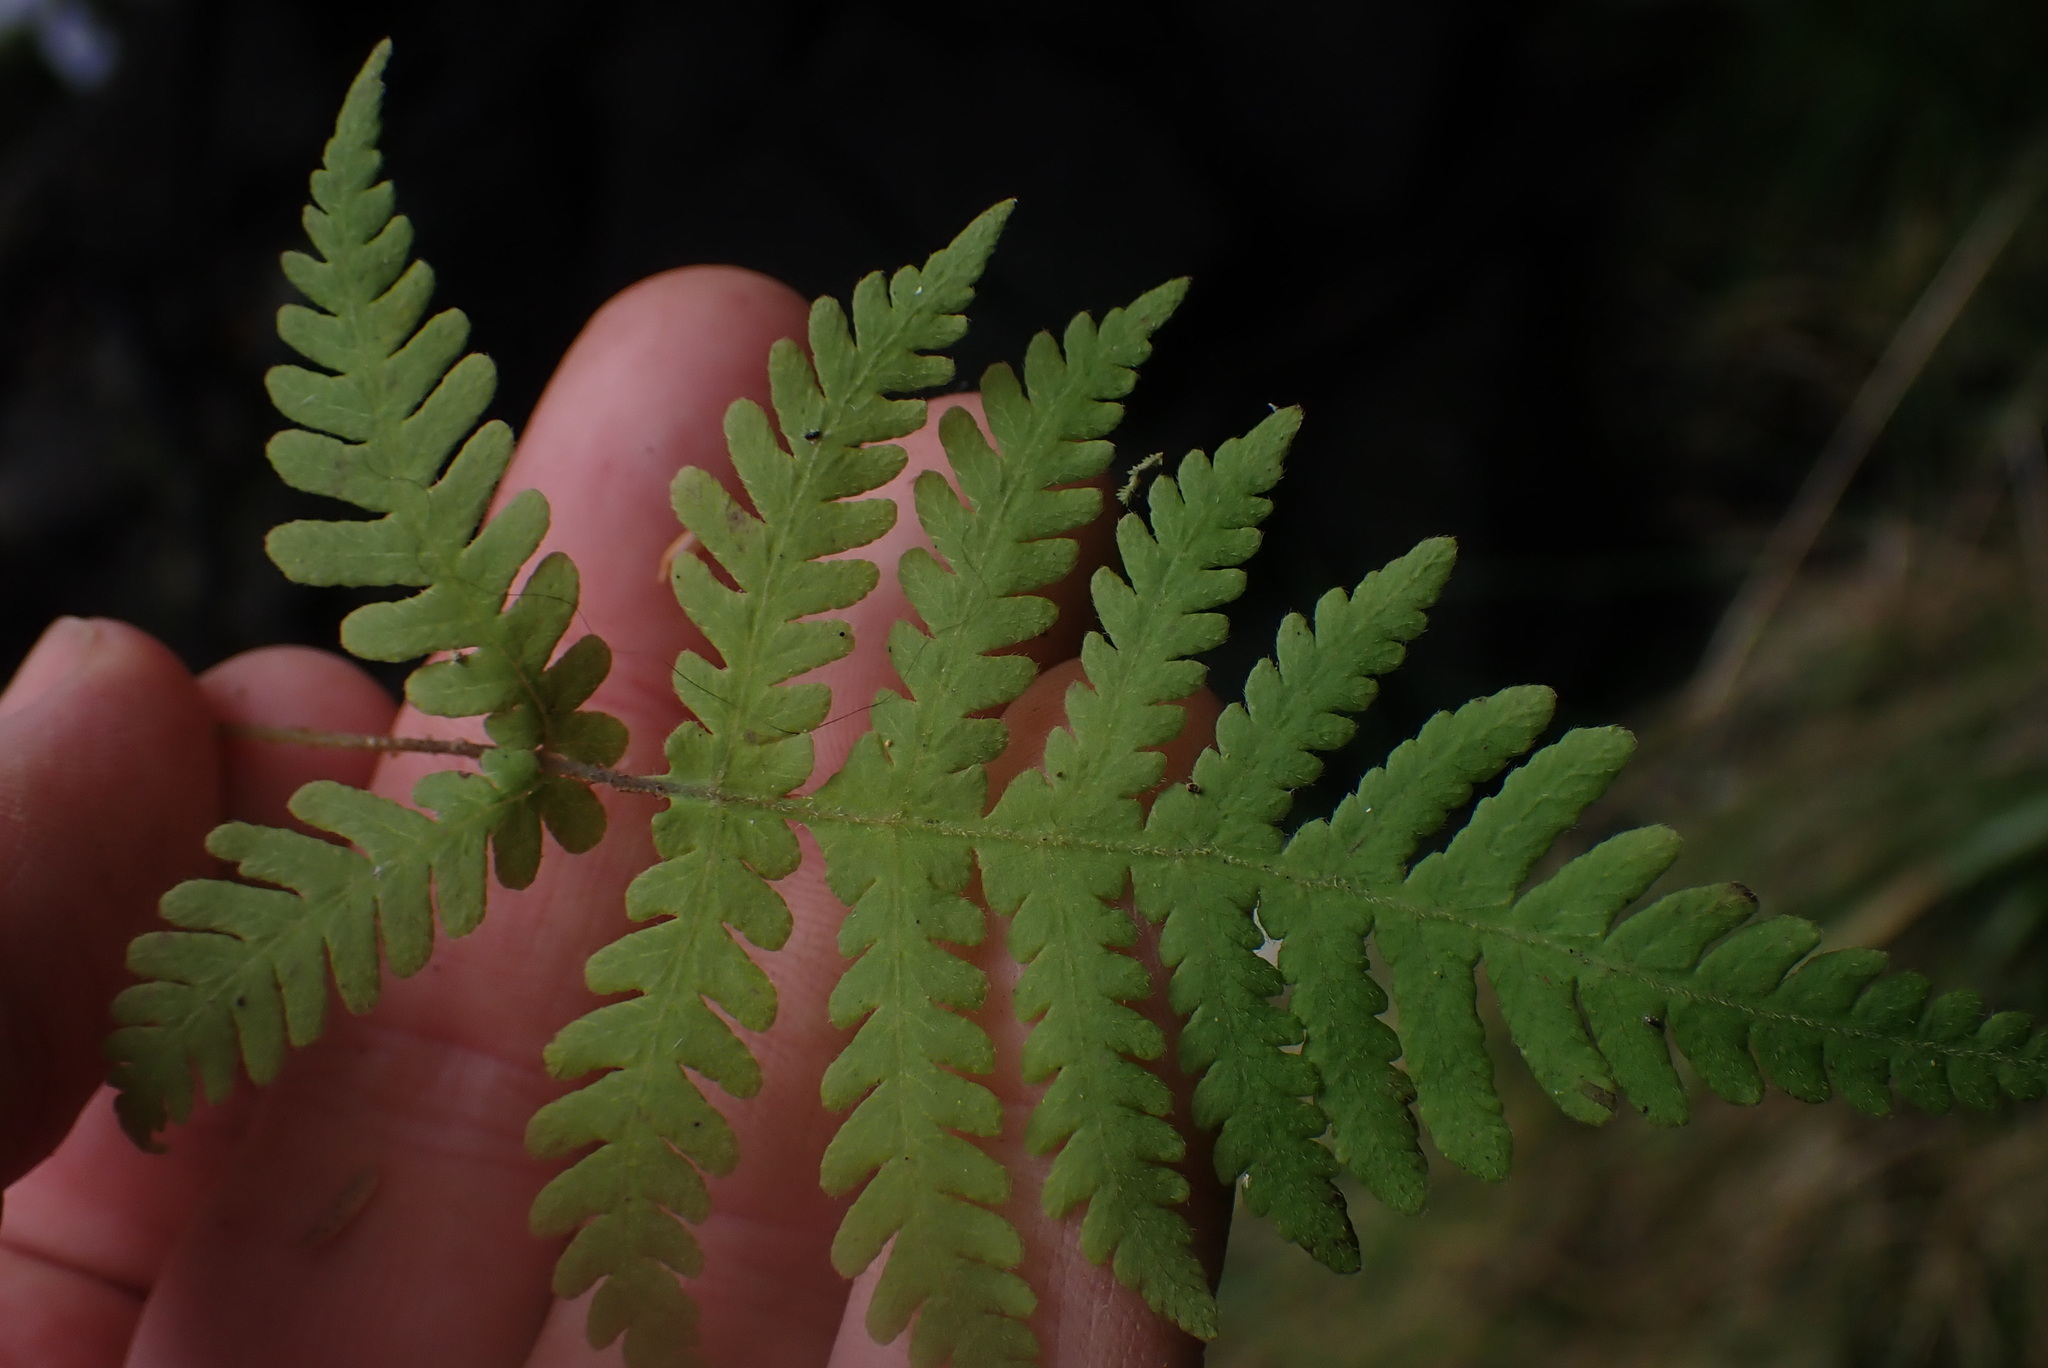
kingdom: Plantae
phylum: Tracheophyta
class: Polypodiopsida
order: Polypodiales
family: Thelypteridaceae
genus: Phegopteris
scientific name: Phegopteris connectilis
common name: Beech fern
